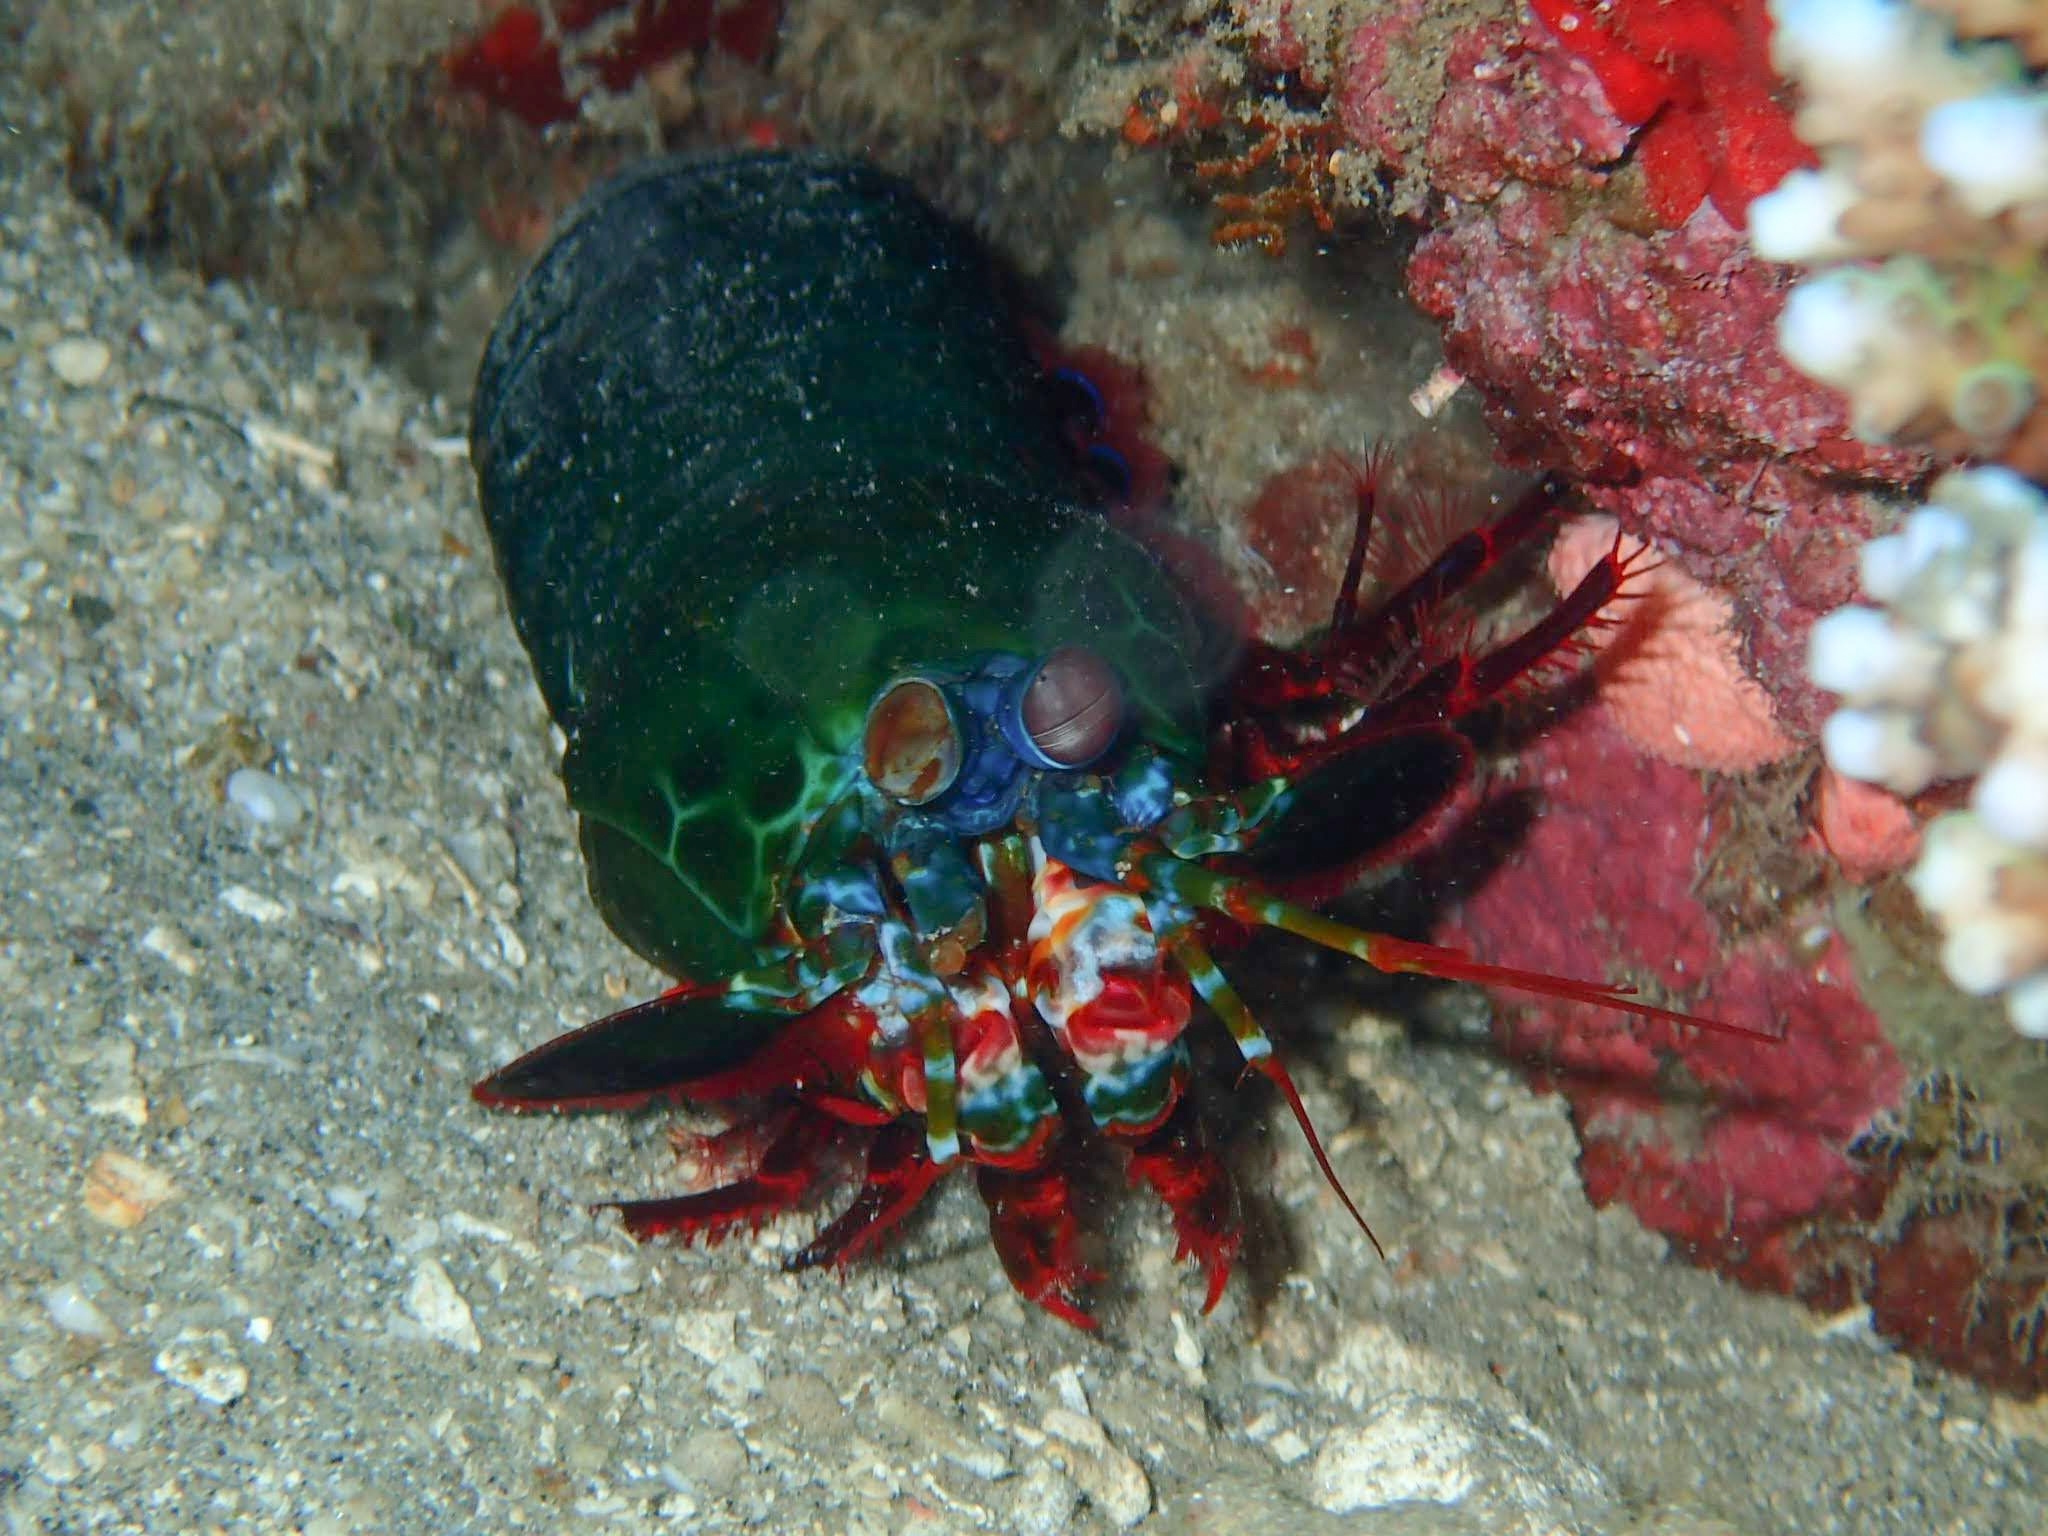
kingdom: Animalia
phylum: Arthropoda
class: Malacostraca
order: Stomatopoda
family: Odontodactylidae
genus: Odontodactylus
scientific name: Odontodactylus scyllarus
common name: Peacock mantis shrimp
